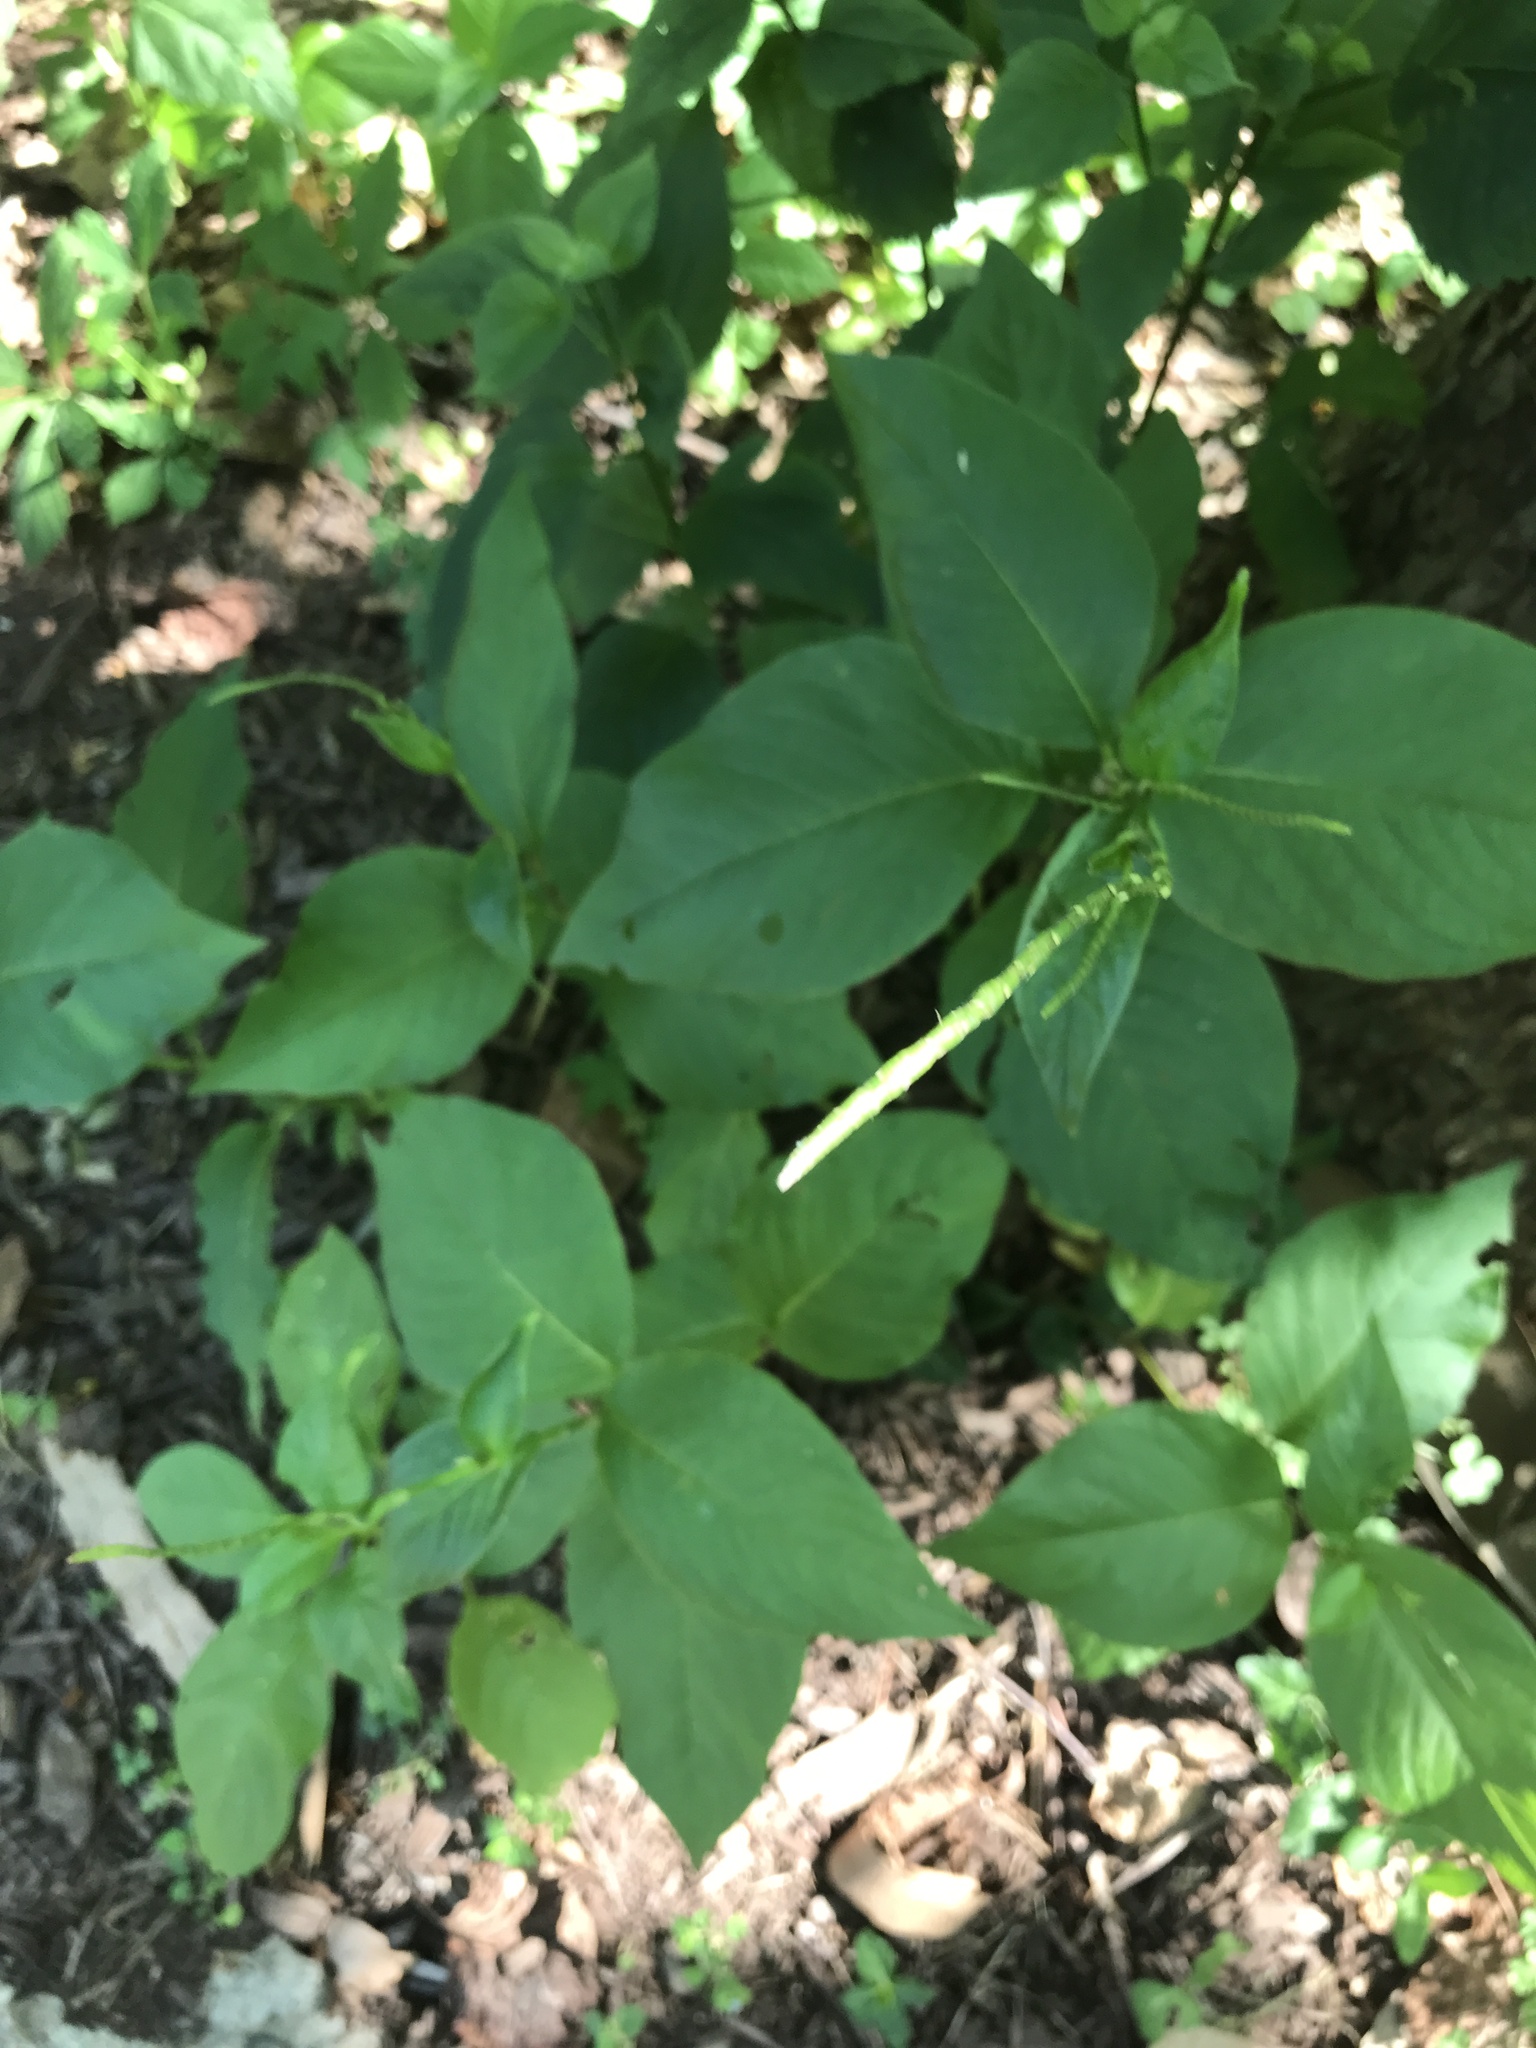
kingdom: Plantae
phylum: Tracheophyta
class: Magnoliopsida
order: Caryophyllales
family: Polygonaceae
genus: Persicaria
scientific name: Persicaria virginiana
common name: Jumpseed
